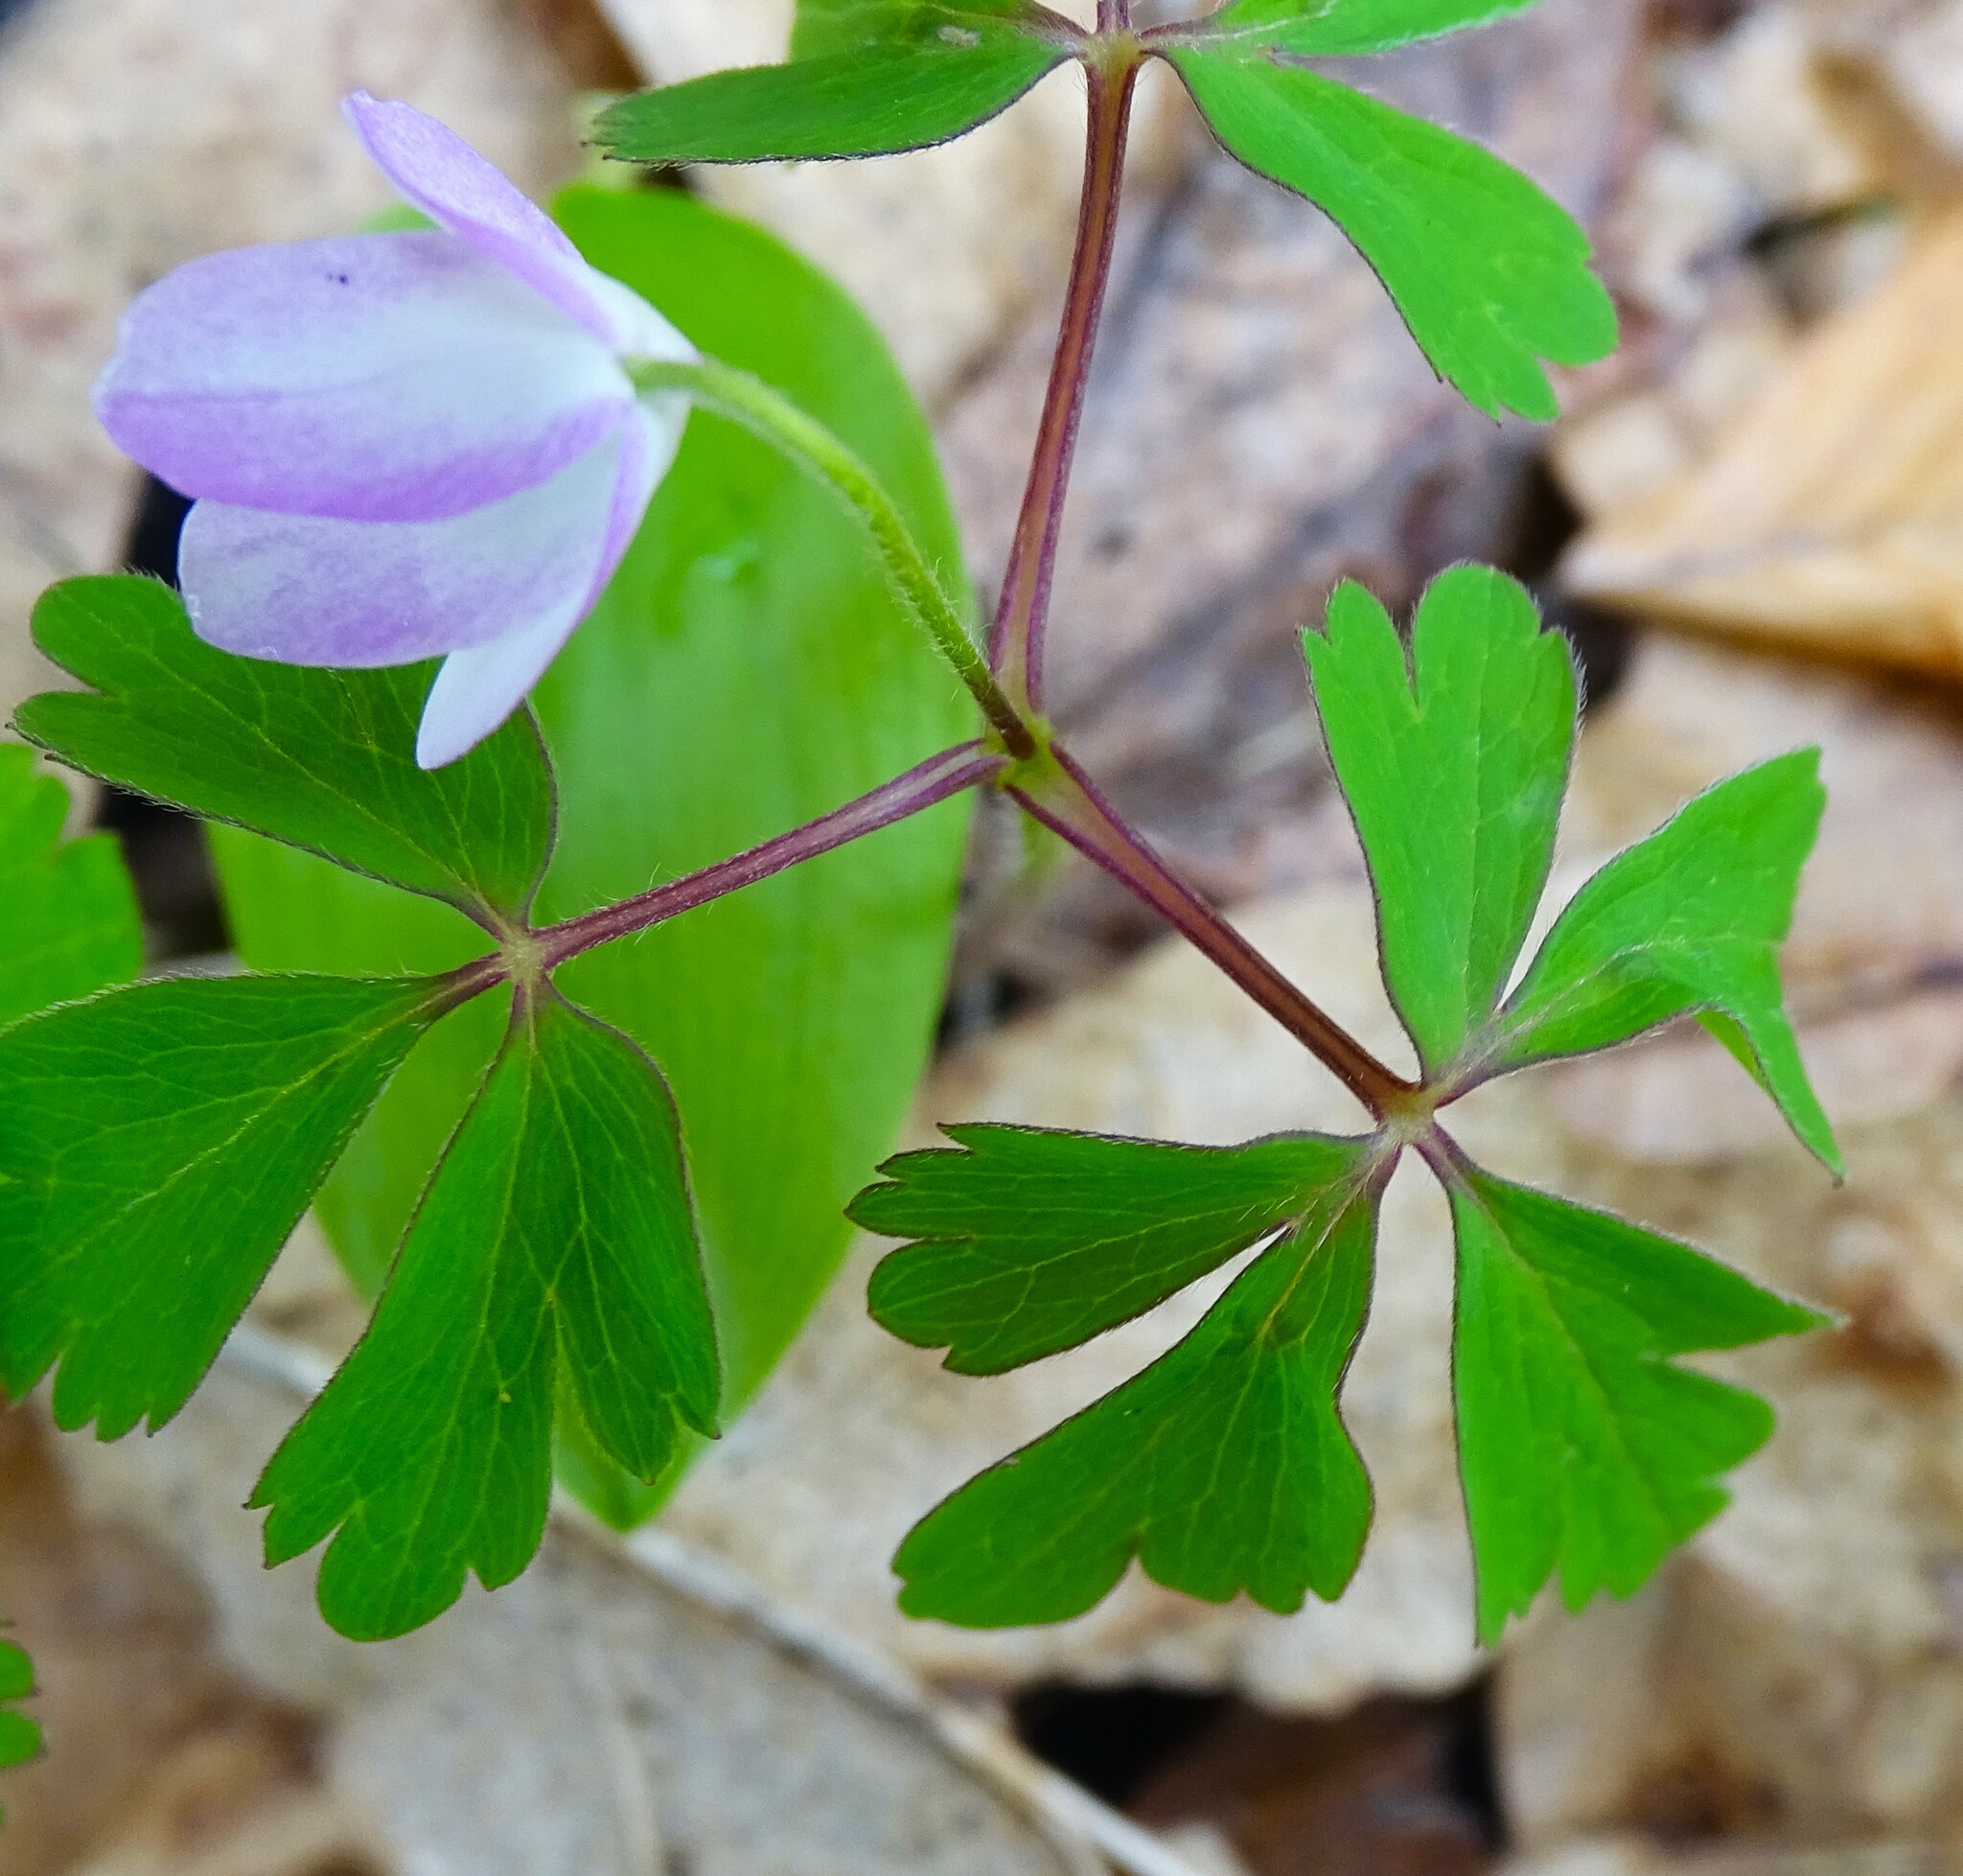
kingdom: Plantae
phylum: Tracheophyta
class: Magnoliopsida
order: Ranunculales
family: Ranunculaceae
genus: Anemone
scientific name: Anemone quinquefolia
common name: Wood anemone
